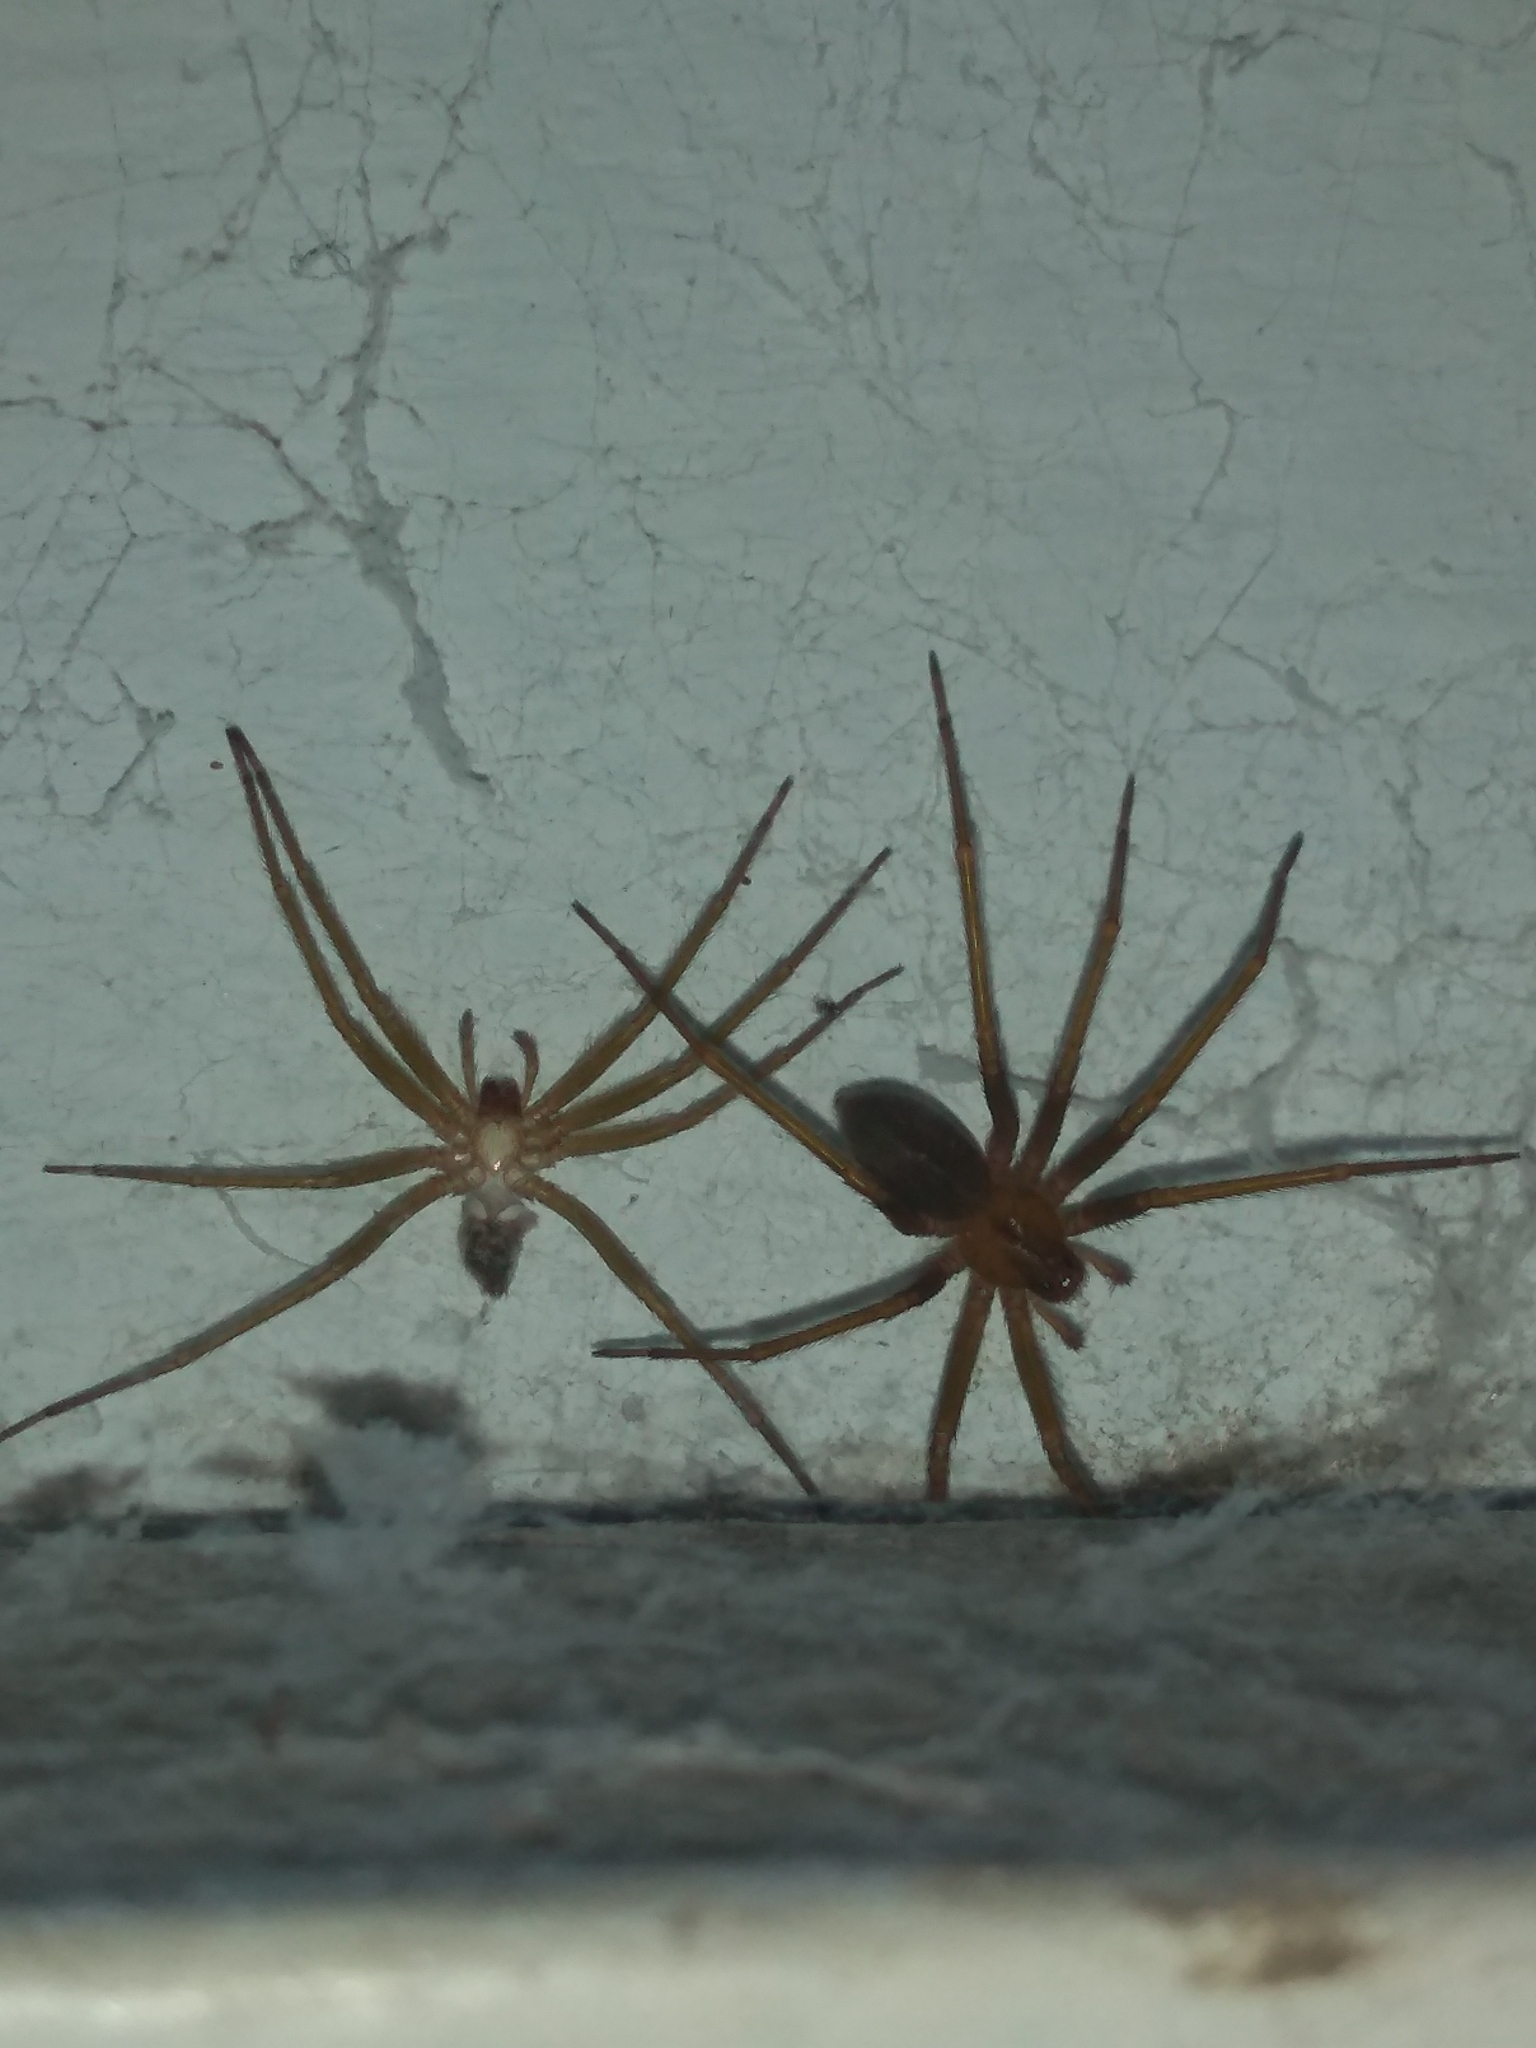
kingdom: Animalia
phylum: Arthropoda
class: Arachnida
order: Araneae
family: Sicariidae
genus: Loxosceles
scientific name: Loxosceles laeta
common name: Chilean recluse spider
